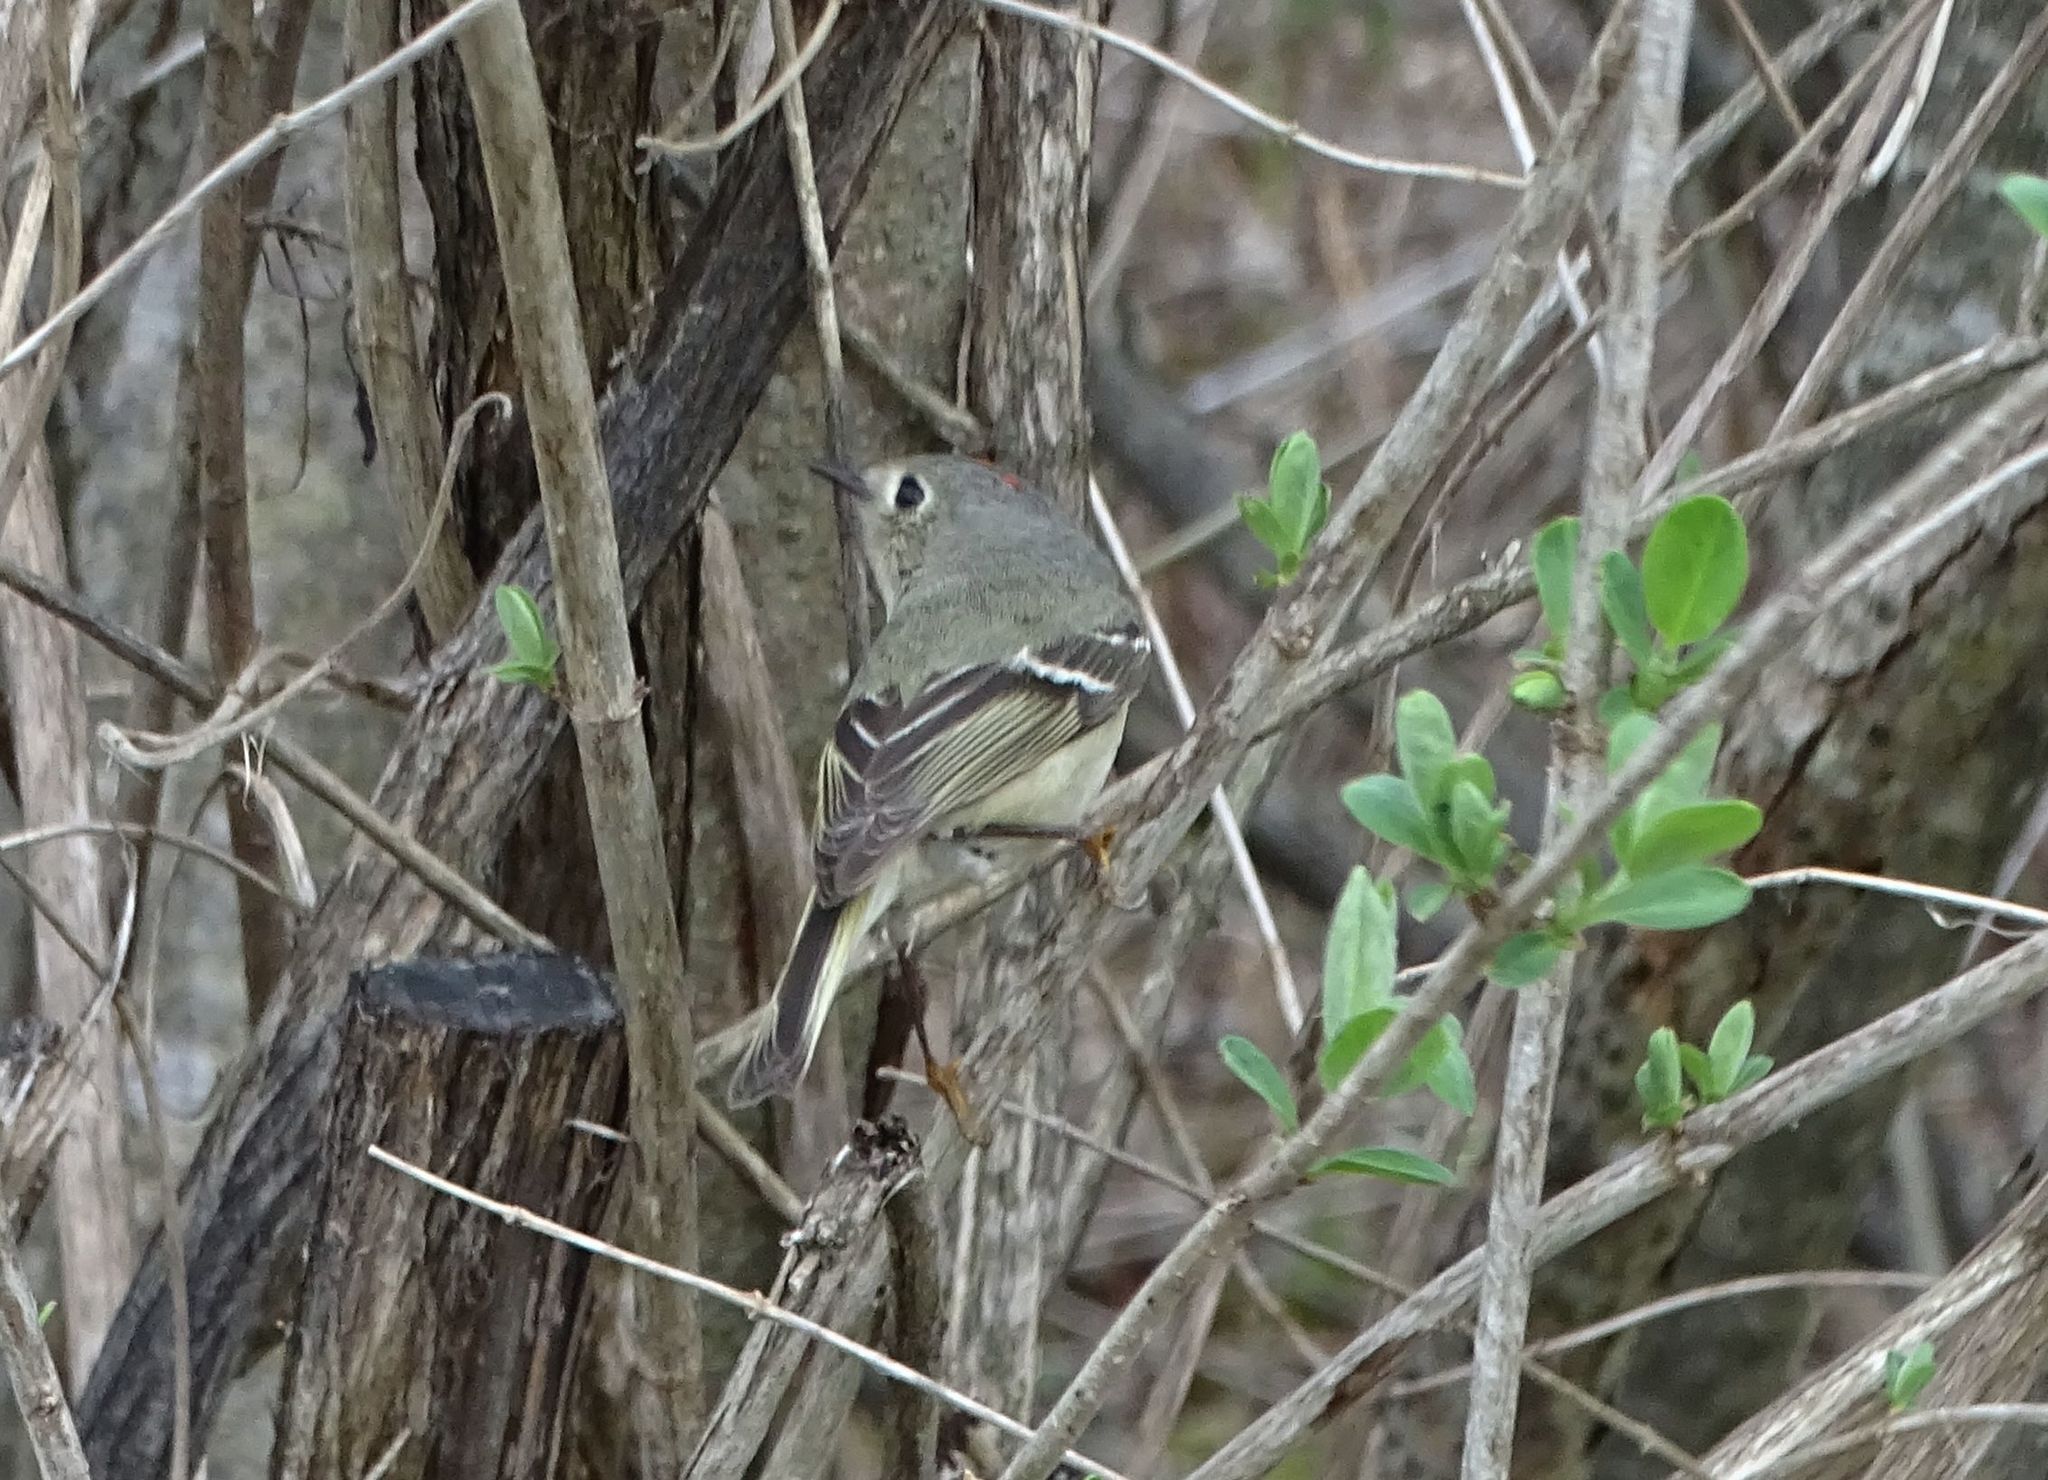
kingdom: Animalia
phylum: Chordata
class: Aves
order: Passeriformes
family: Regulidae
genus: Regulus
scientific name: Regulus calendula
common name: Ruby-crowned kinglet
